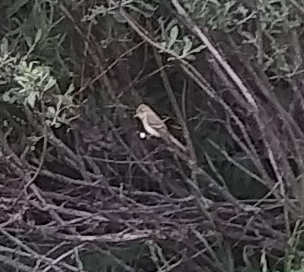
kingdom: Animalia
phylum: Chordata
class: Aves
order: Passeriformes
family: Tyrannidae
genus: Empidonax
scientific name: Empidonax difficilis
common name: Pacific-slope flycatcher
